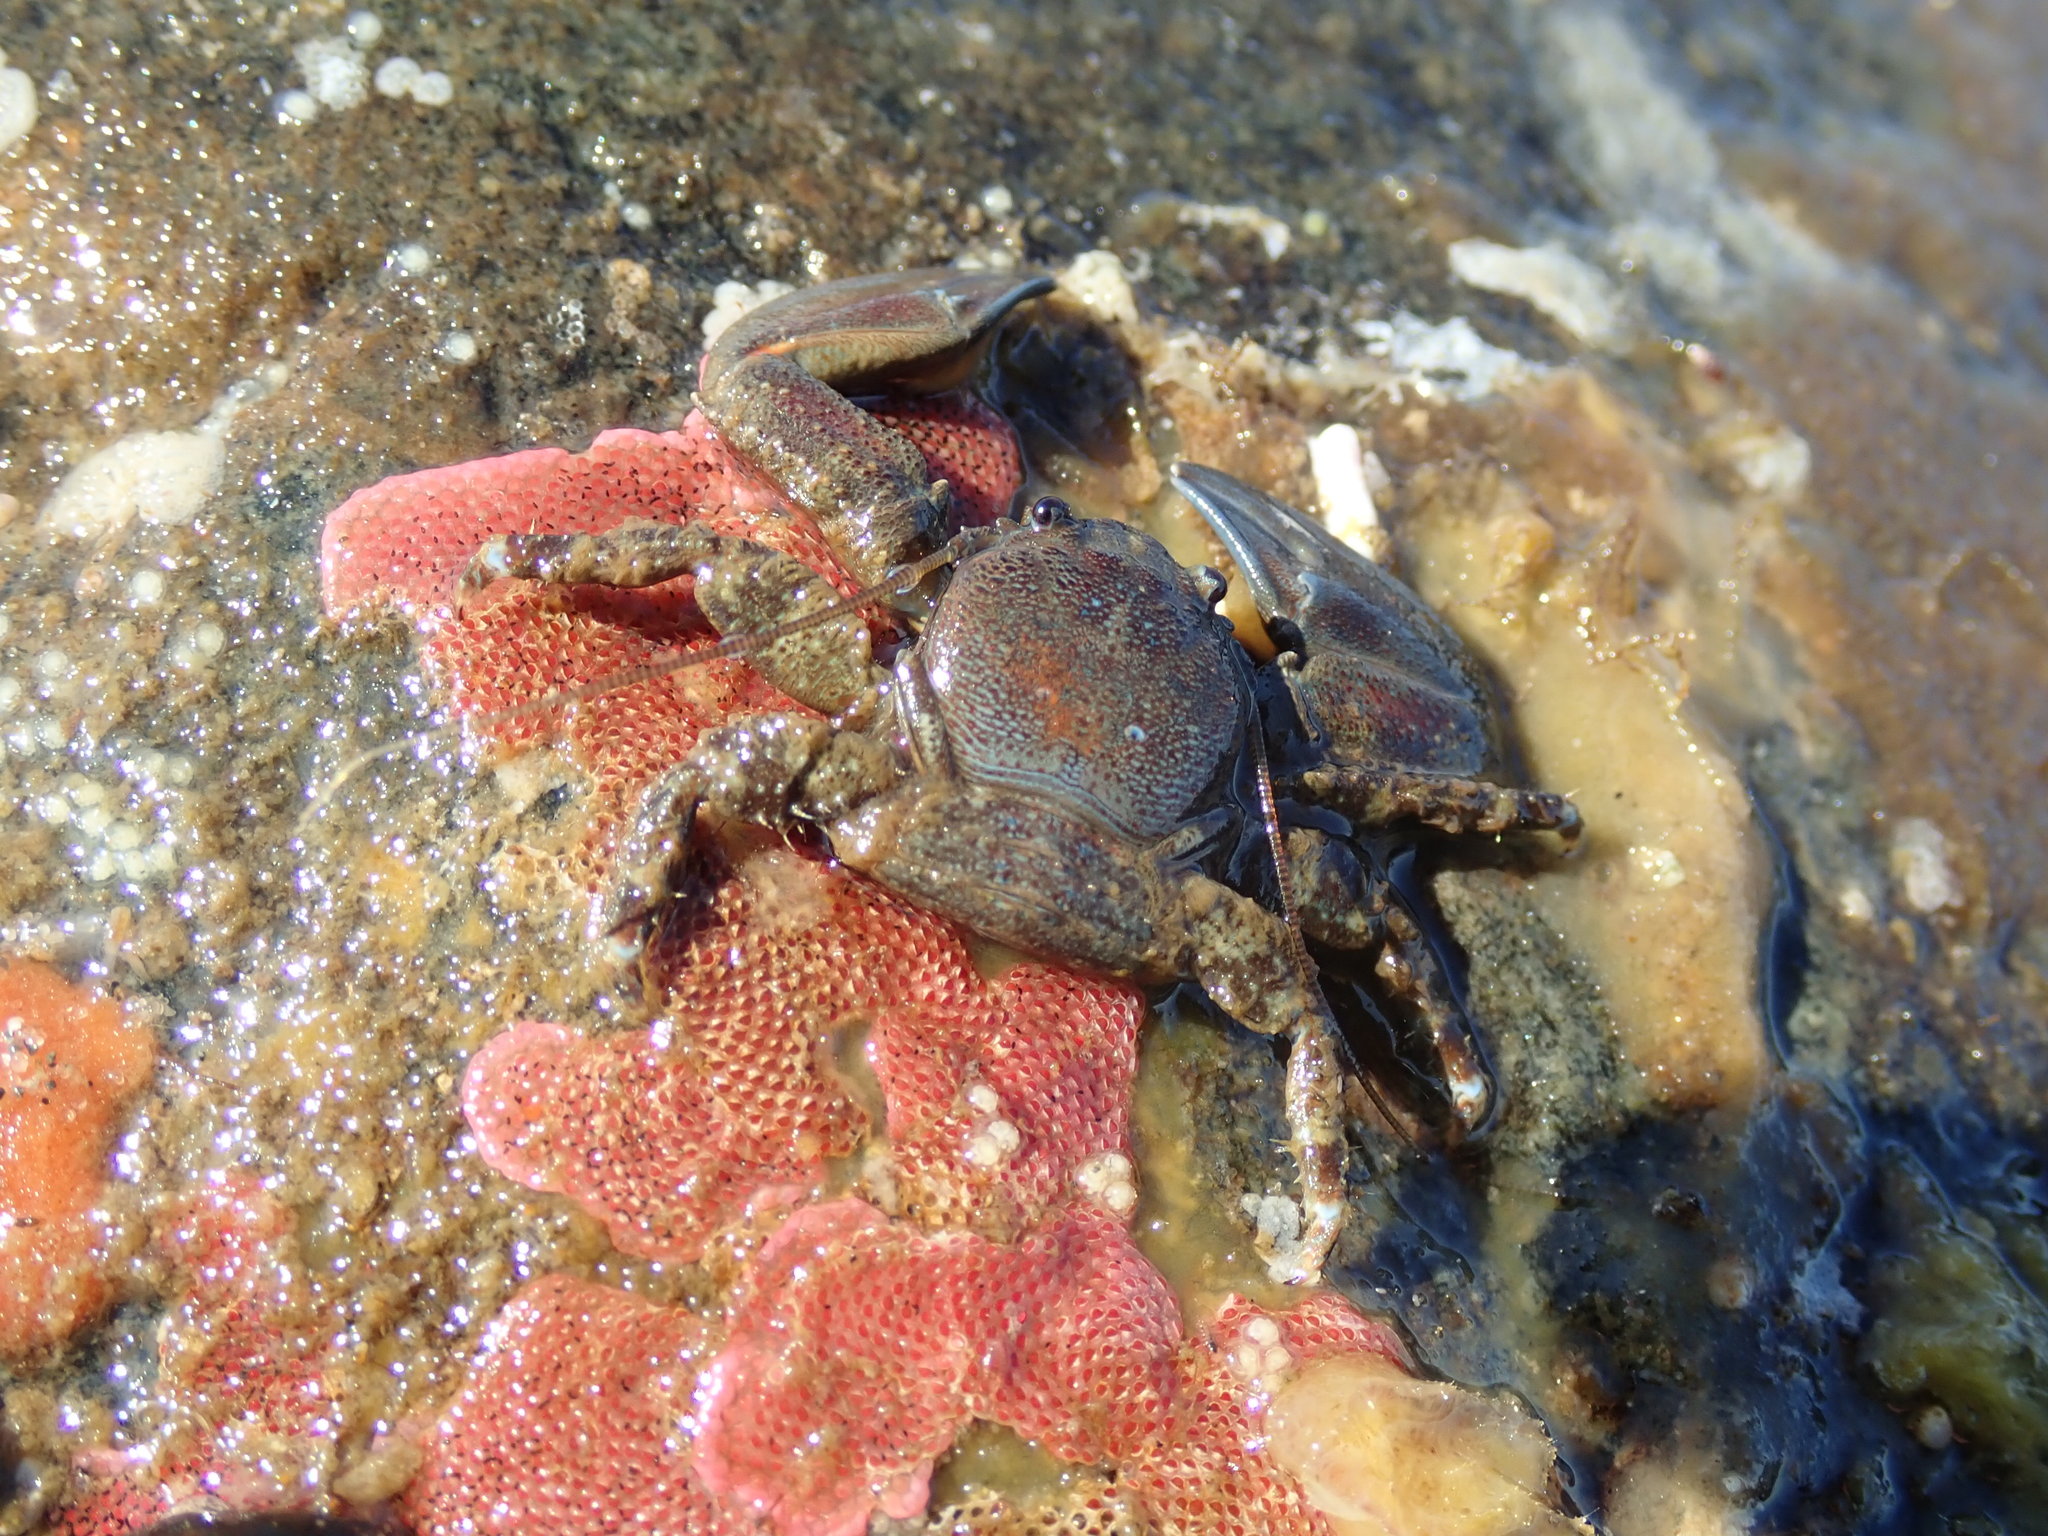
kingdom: Animalia
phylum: Arthropoda
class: Malacostraca
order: Decapoda
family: Porcellanidae
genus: Petrolisthes
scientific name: Petrolisthes eriomerus
